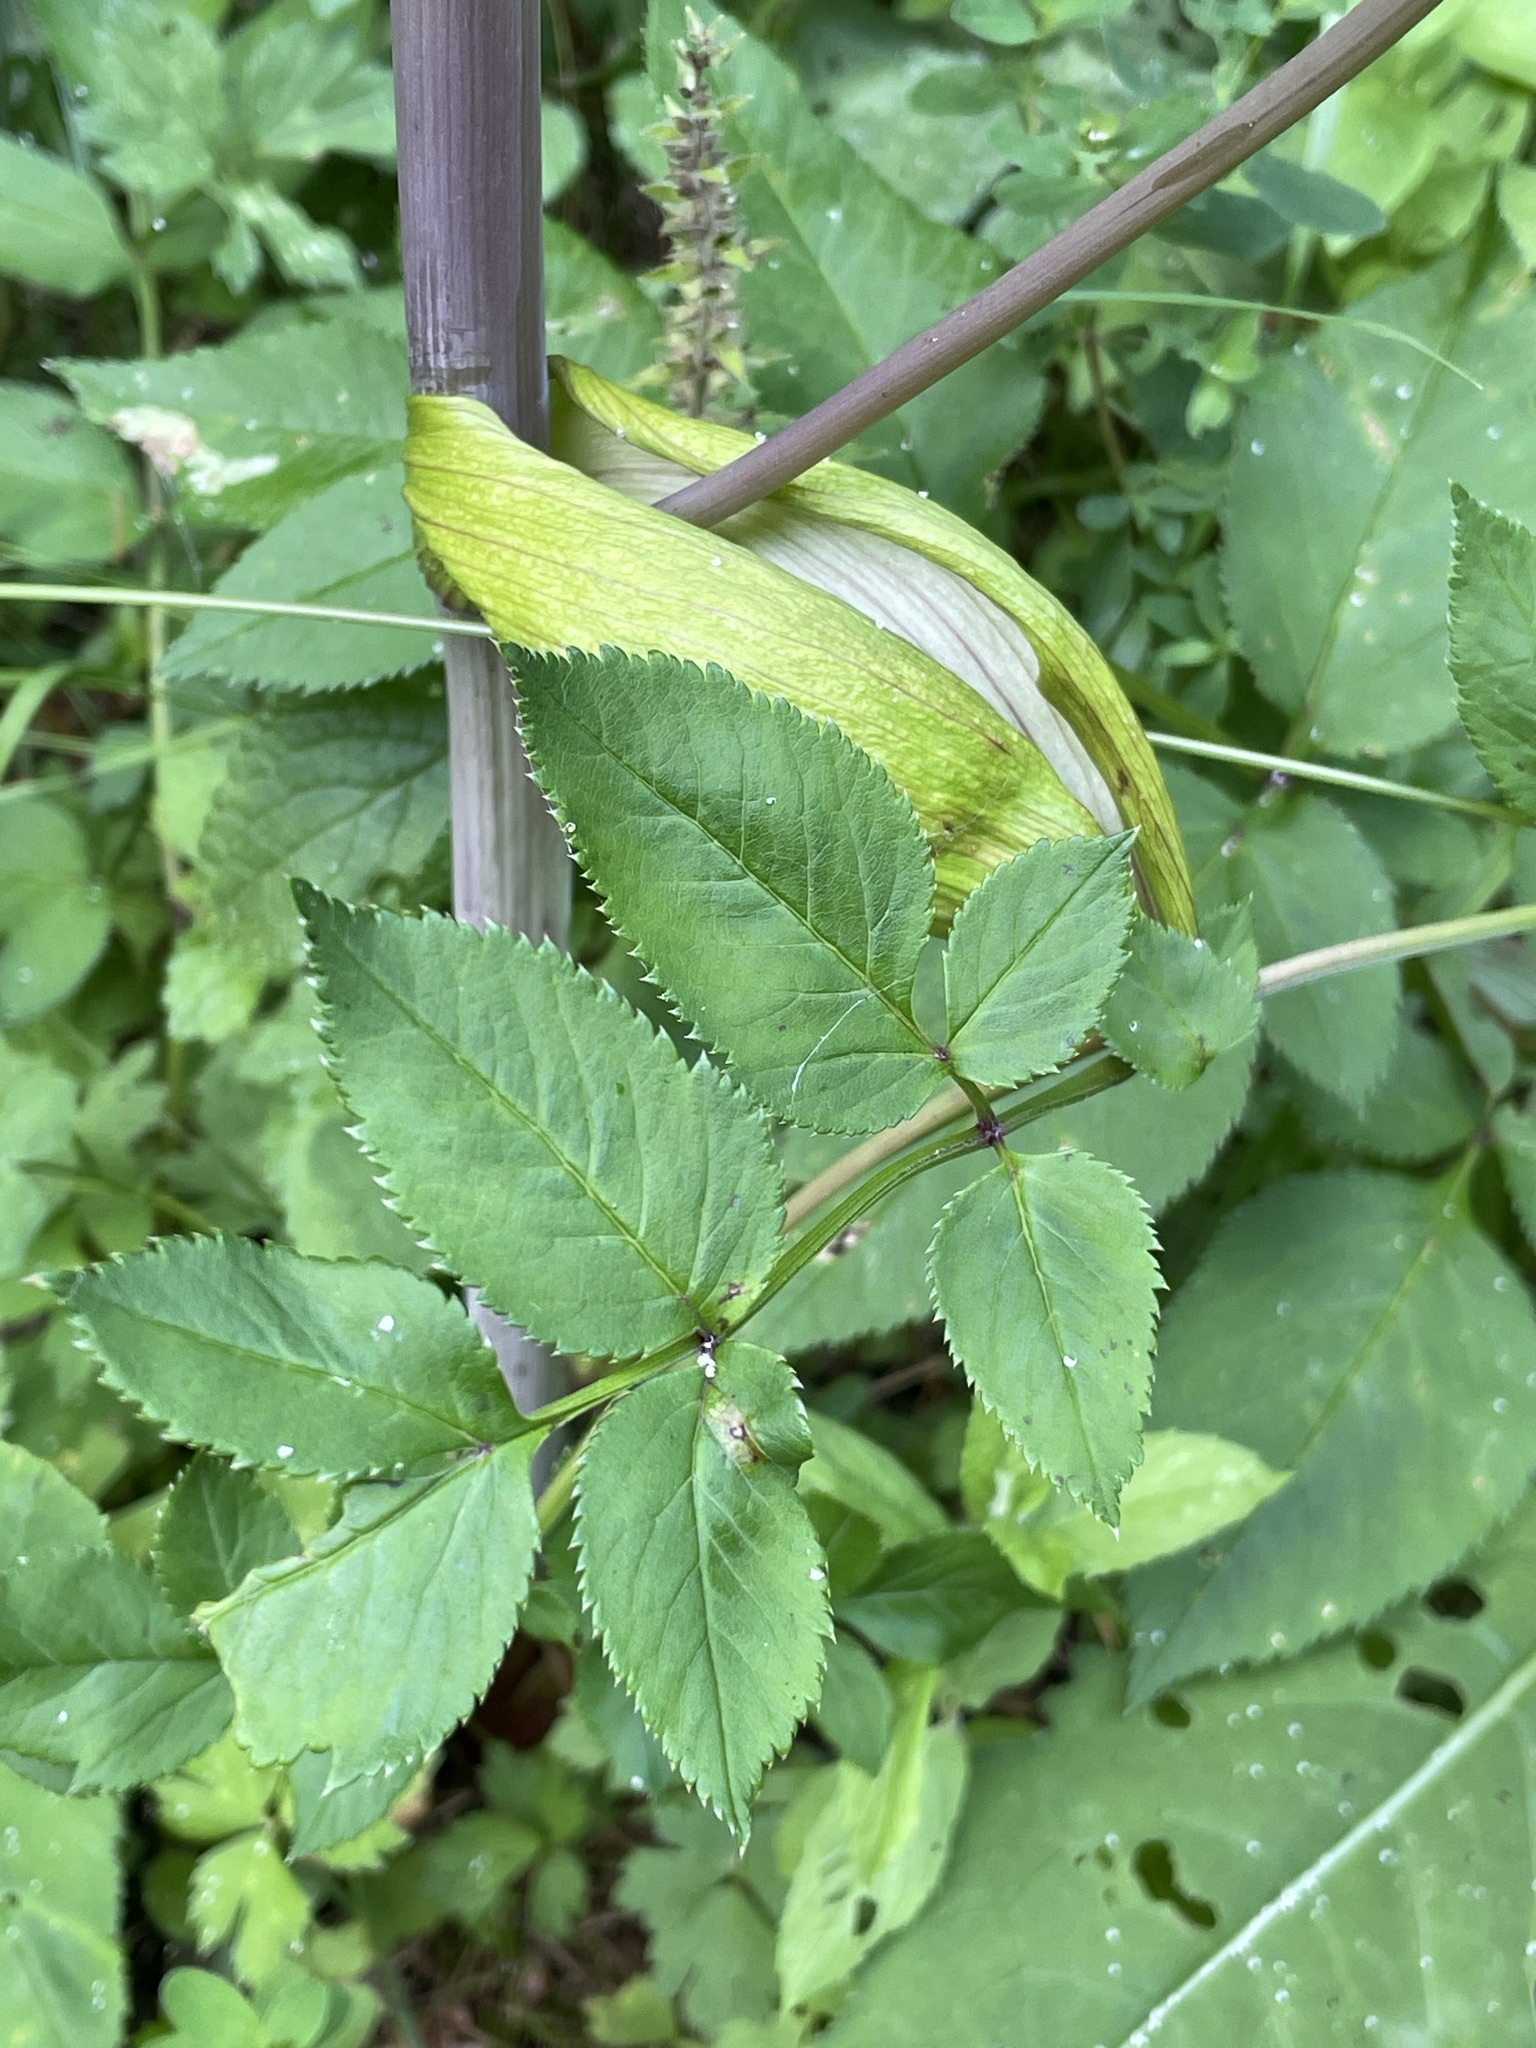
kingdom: Plantae
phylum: Tracheophyta
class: Magnoliopsida
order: Apiales
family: Apiaceae
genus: Angelica
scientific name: Angelica sylvestris
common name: Wild angelica
